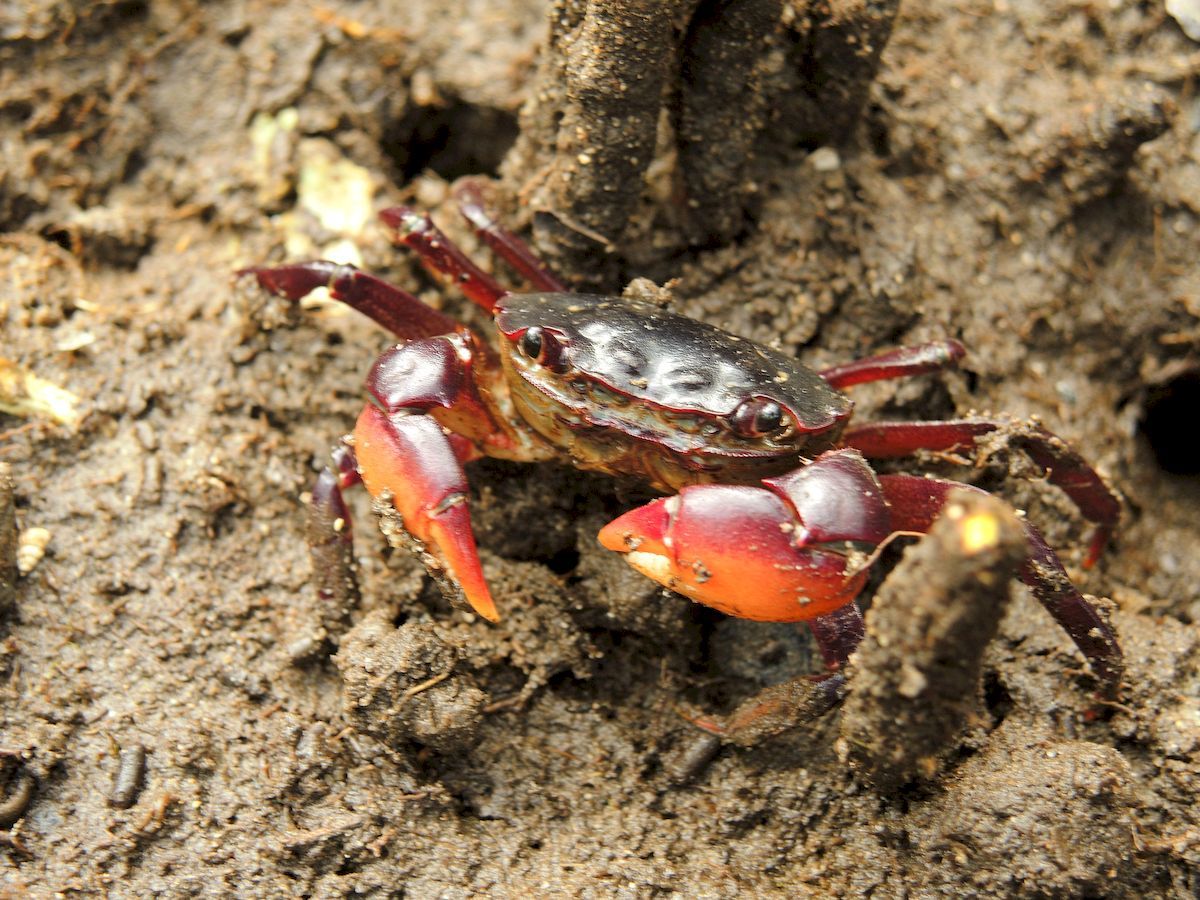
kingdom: Animalia
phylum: Arthropoda
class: Malacostraca
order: Decapoda
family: Varunidae
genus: Paragrapsus
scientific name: Paragrapsus laevis
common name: Smooth shore crab
